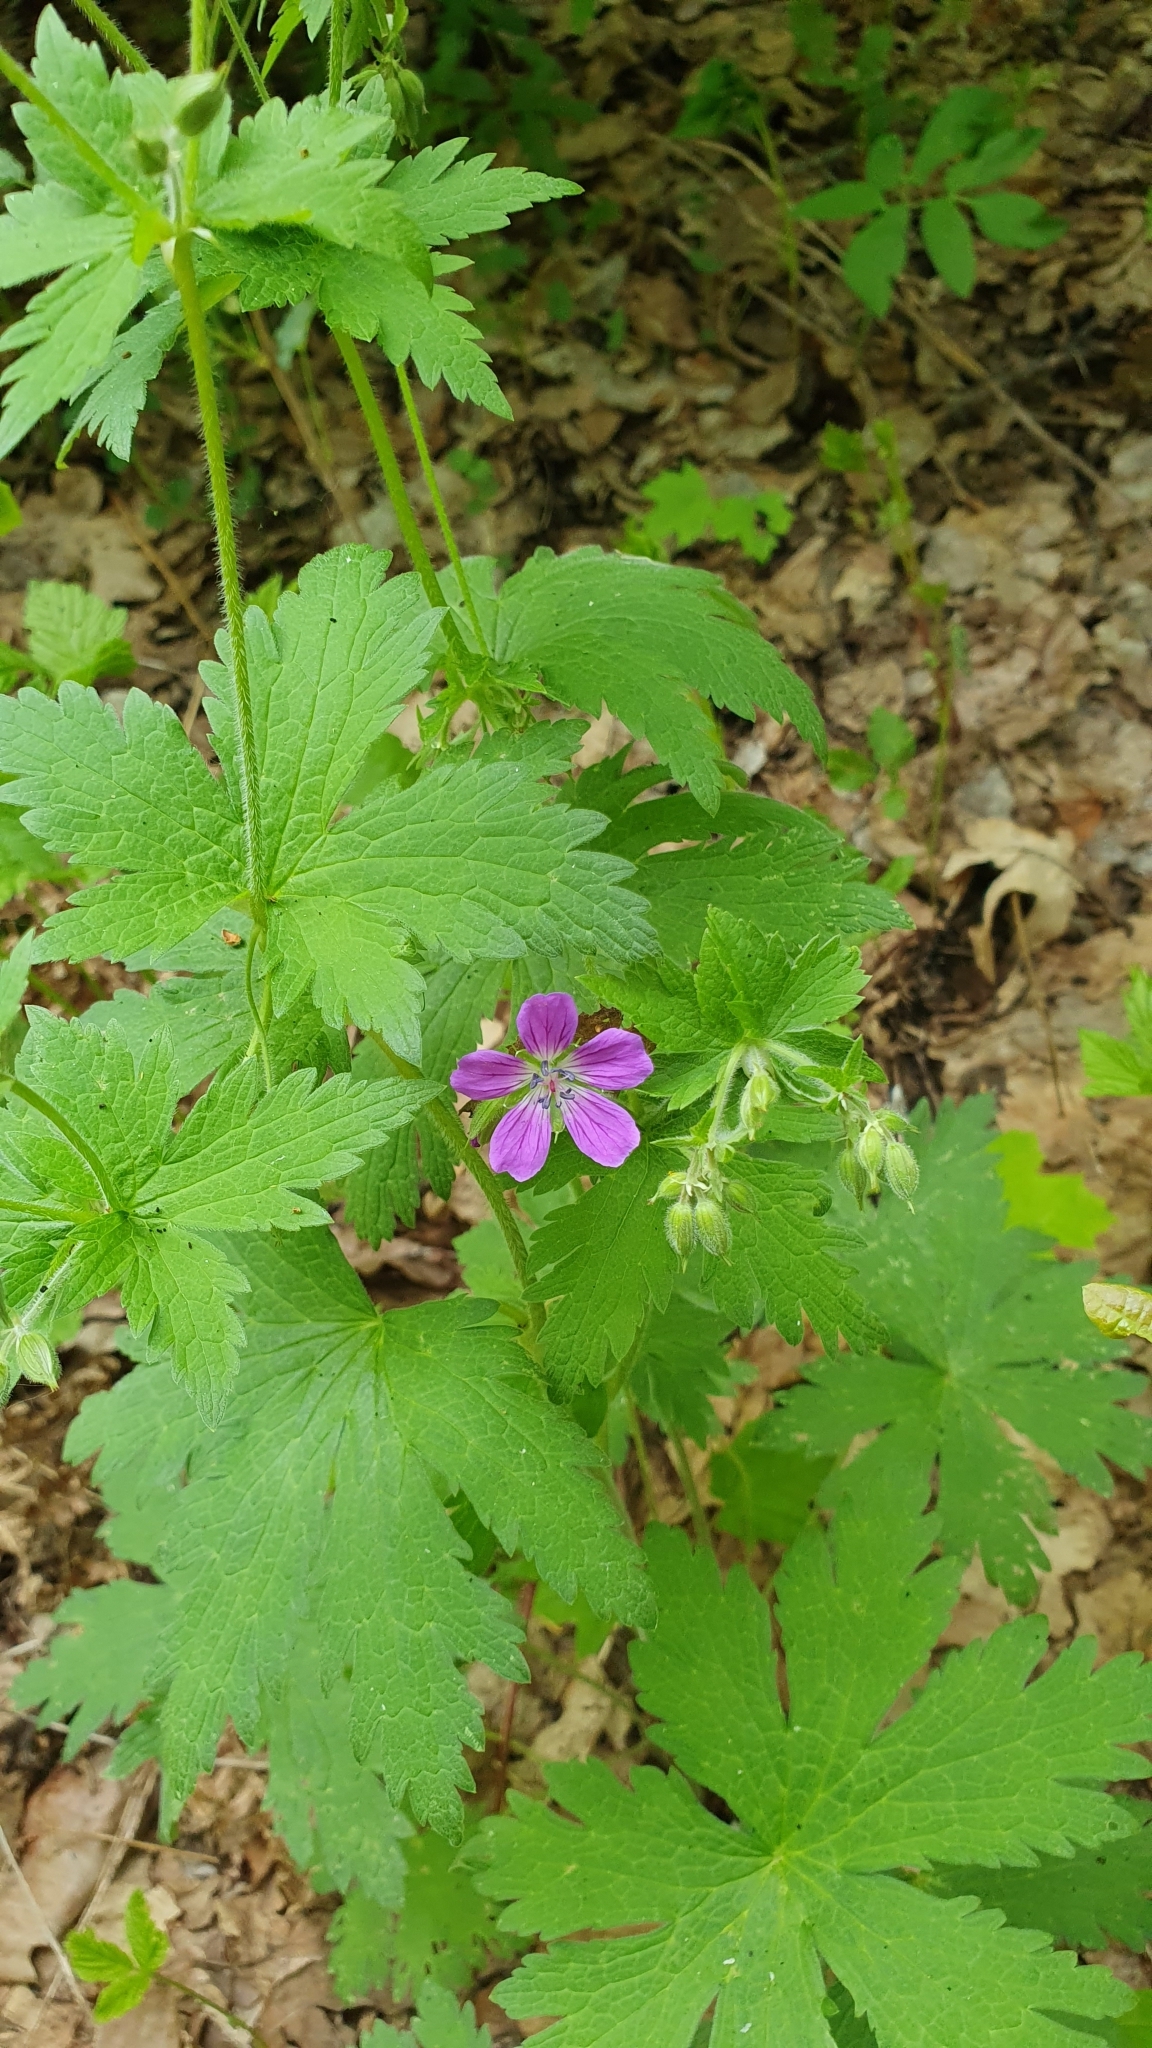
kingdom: Plantae
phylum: Tracheophyta
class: Magnoliopsida
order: Geraniales
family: Geraniaceae
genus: Geranium
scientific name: Geranium sylvaticum
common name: Wood crane's-bill
